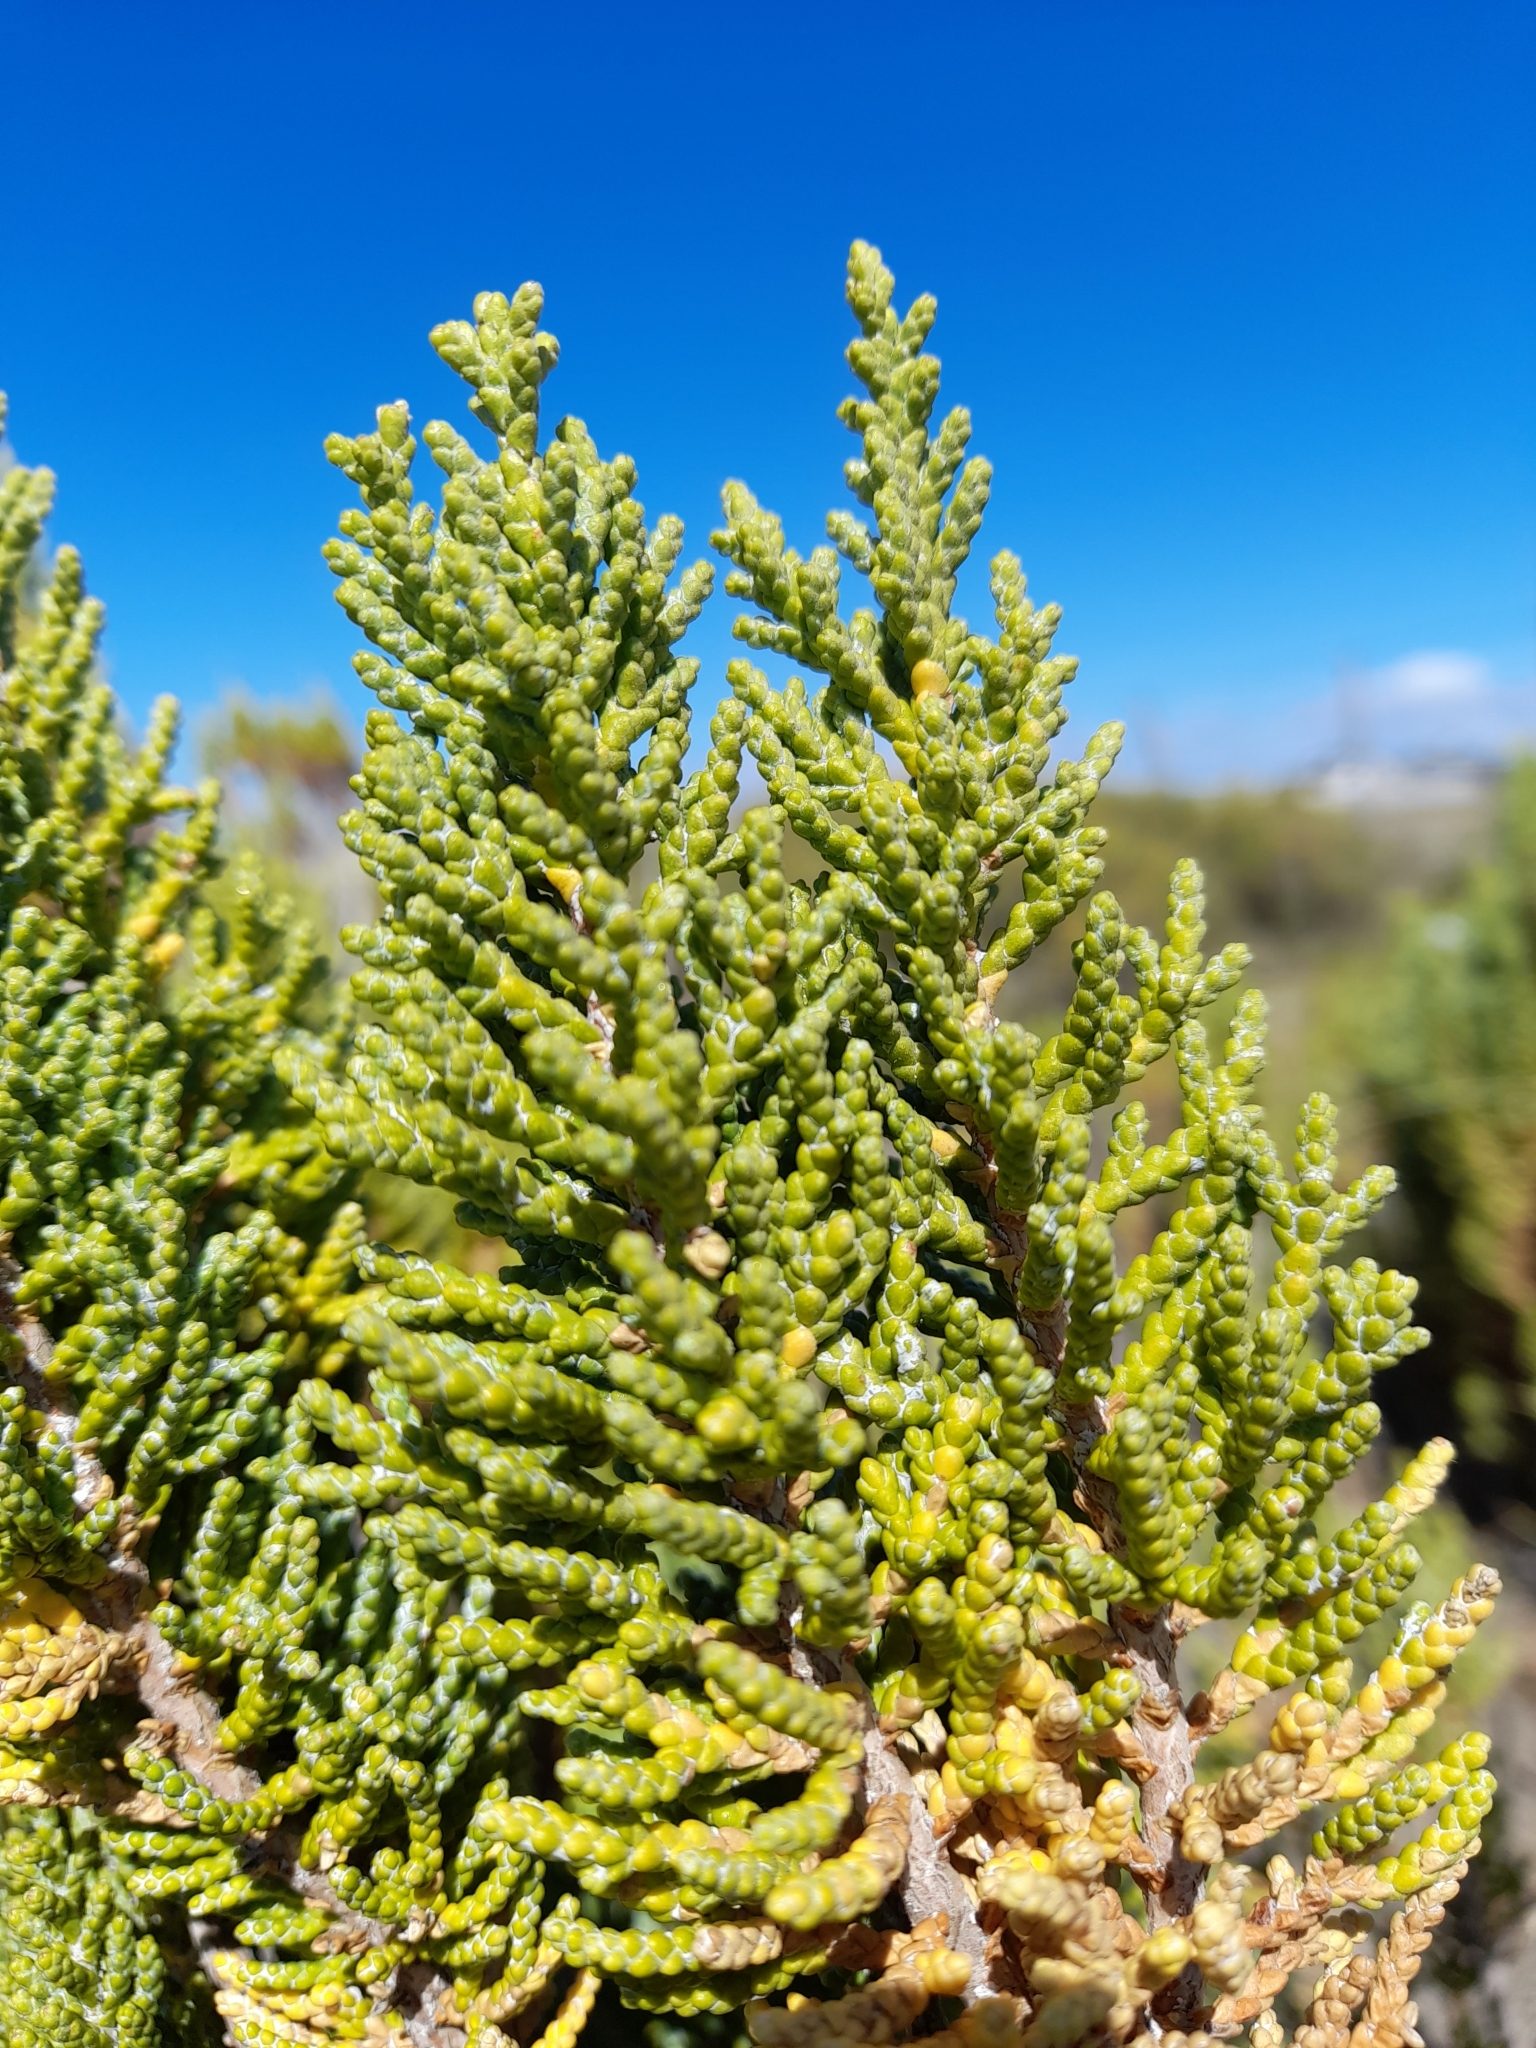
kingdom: Plantae
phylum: Tracheophyta
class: Magnoliopsida
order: Asterales
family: Asteraceae
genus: Lepidophyllum
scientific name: Lepidophyllum cupressiforme
